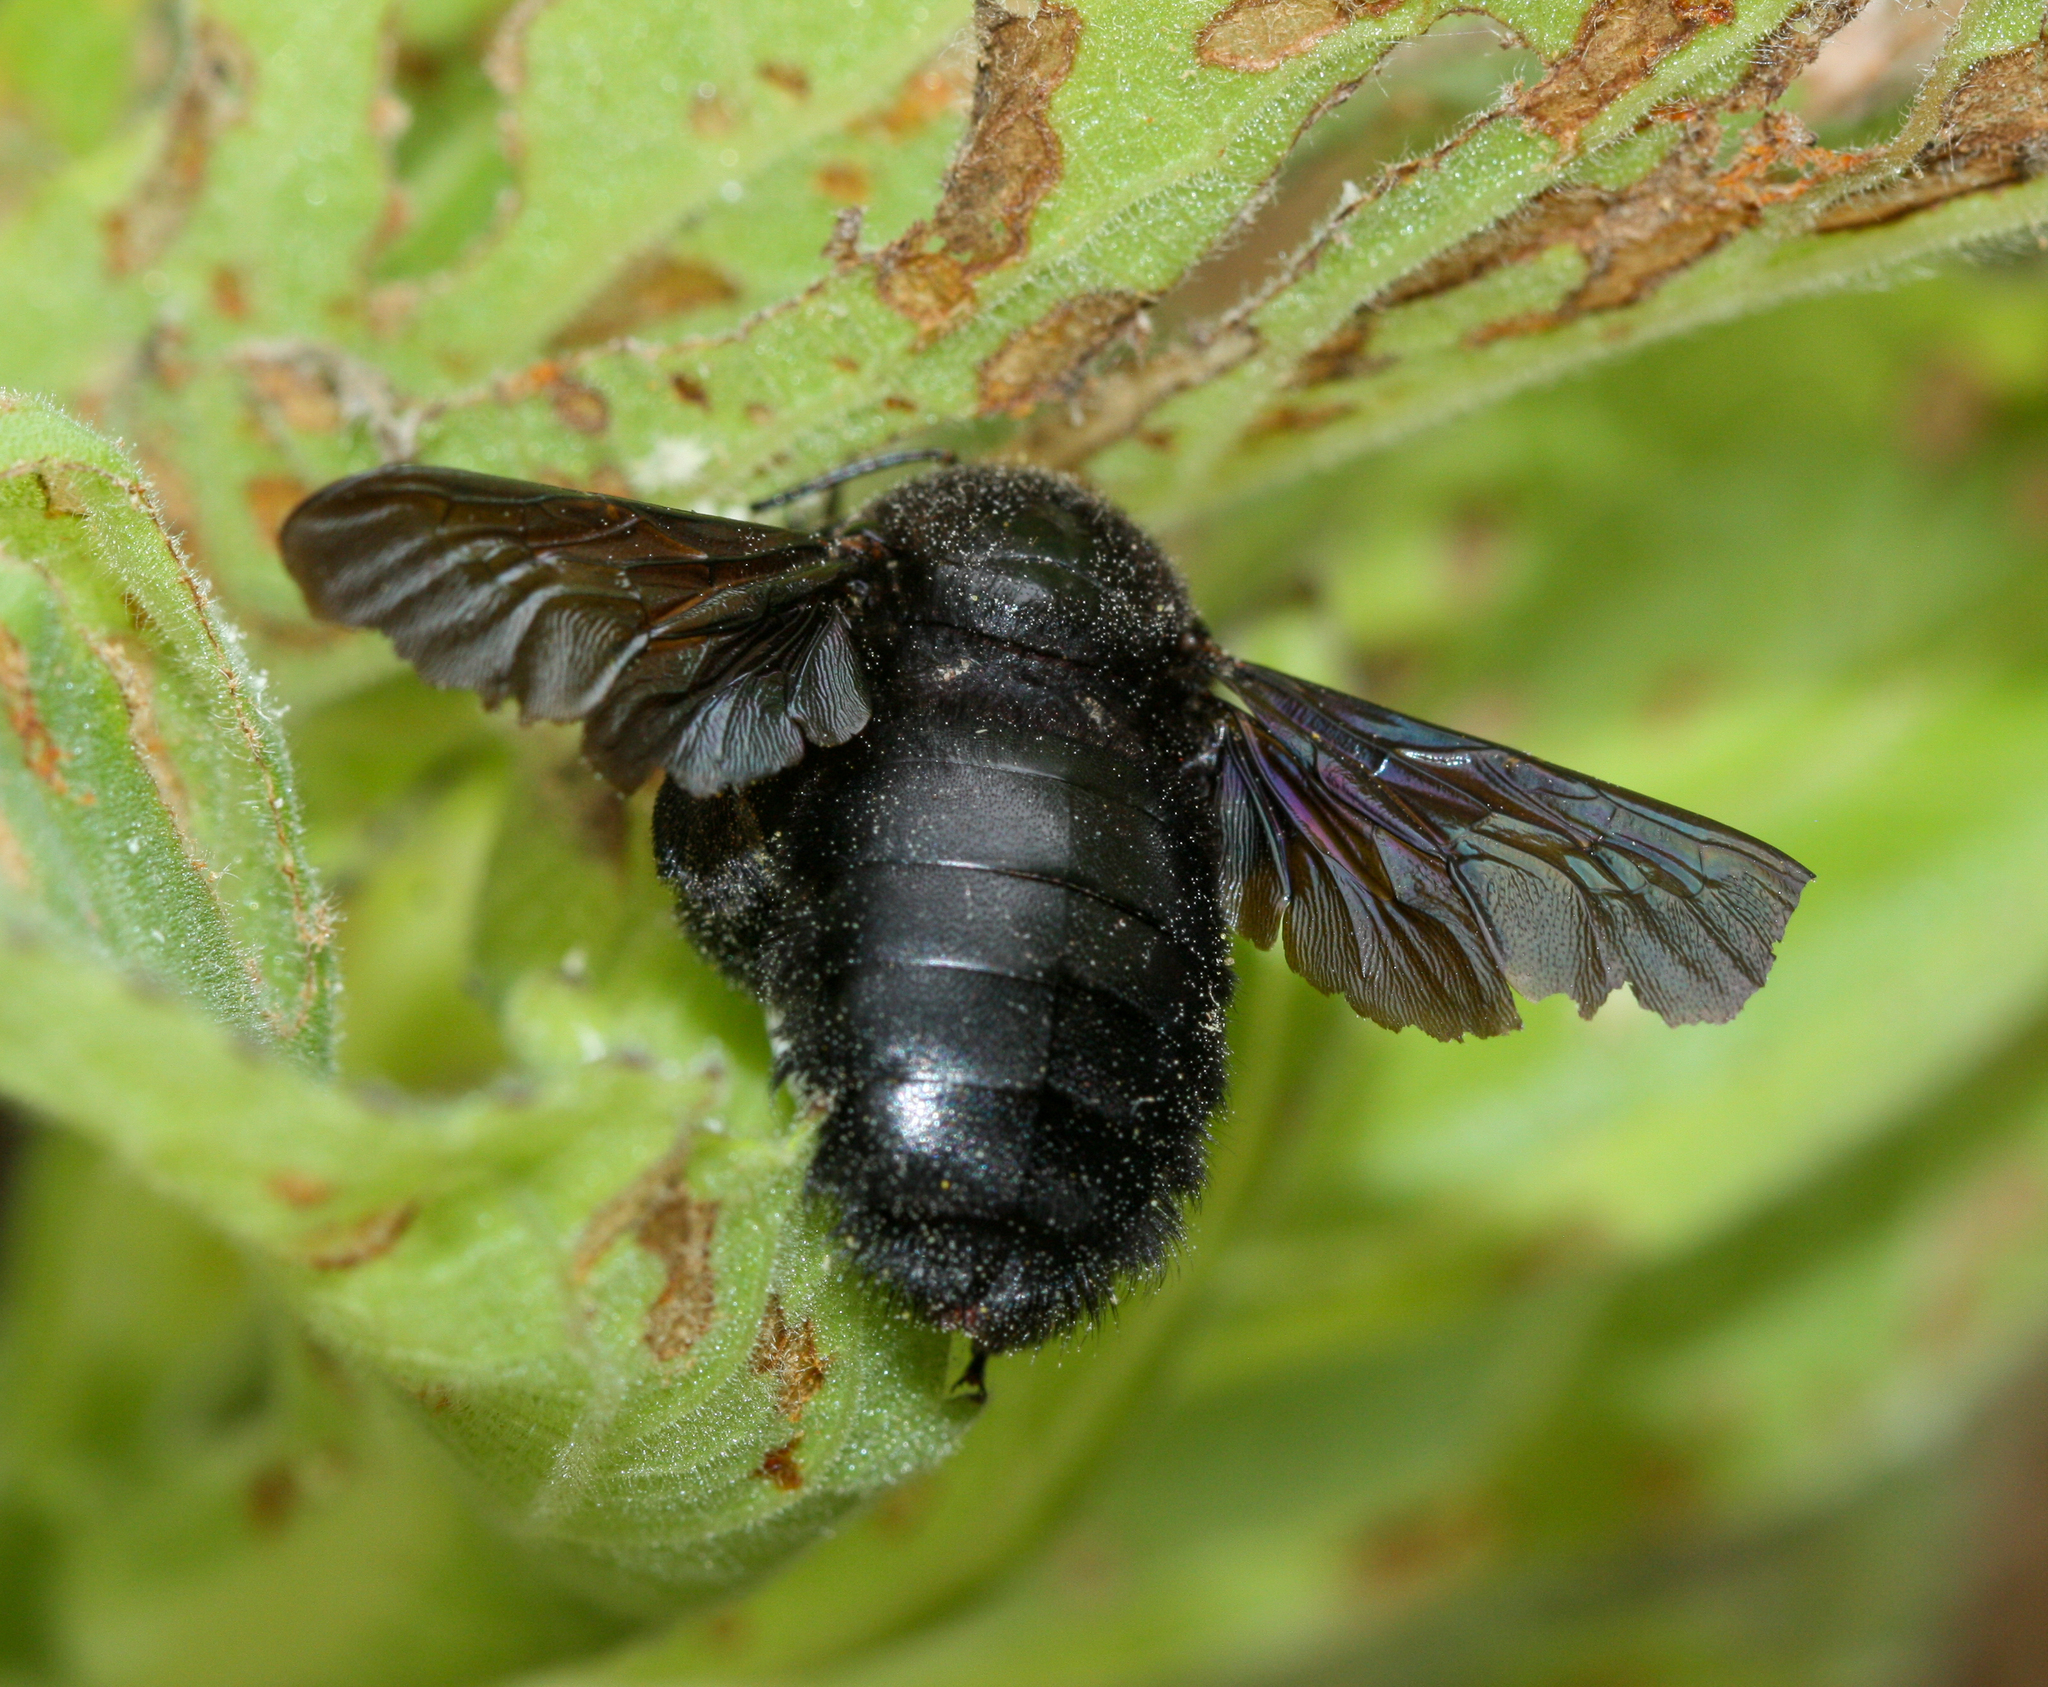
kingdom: Animalia
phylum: Arthropoda
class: Insecta
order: Hymenoptera
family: Apidae
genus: Xylocopa
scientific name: Xylocopa darwini
